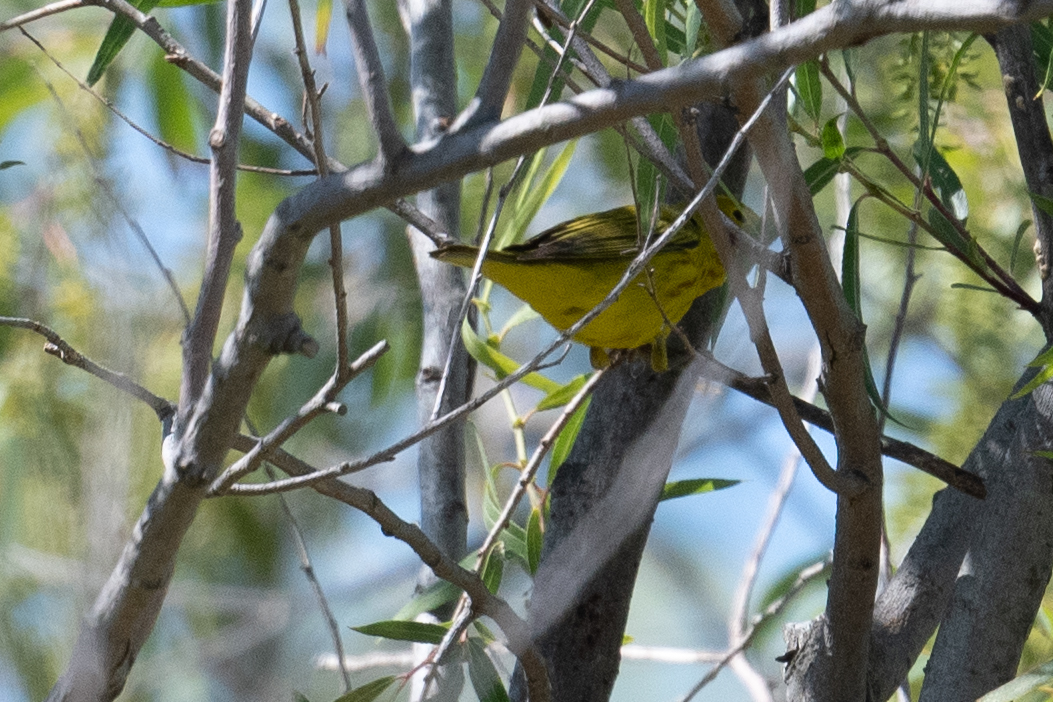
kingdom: Animalia
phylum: Chordata
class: Aves
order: Passeriformes
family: Parulidae
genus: Setophaga
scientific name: Setophaga petechia
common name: Yellow warbler
